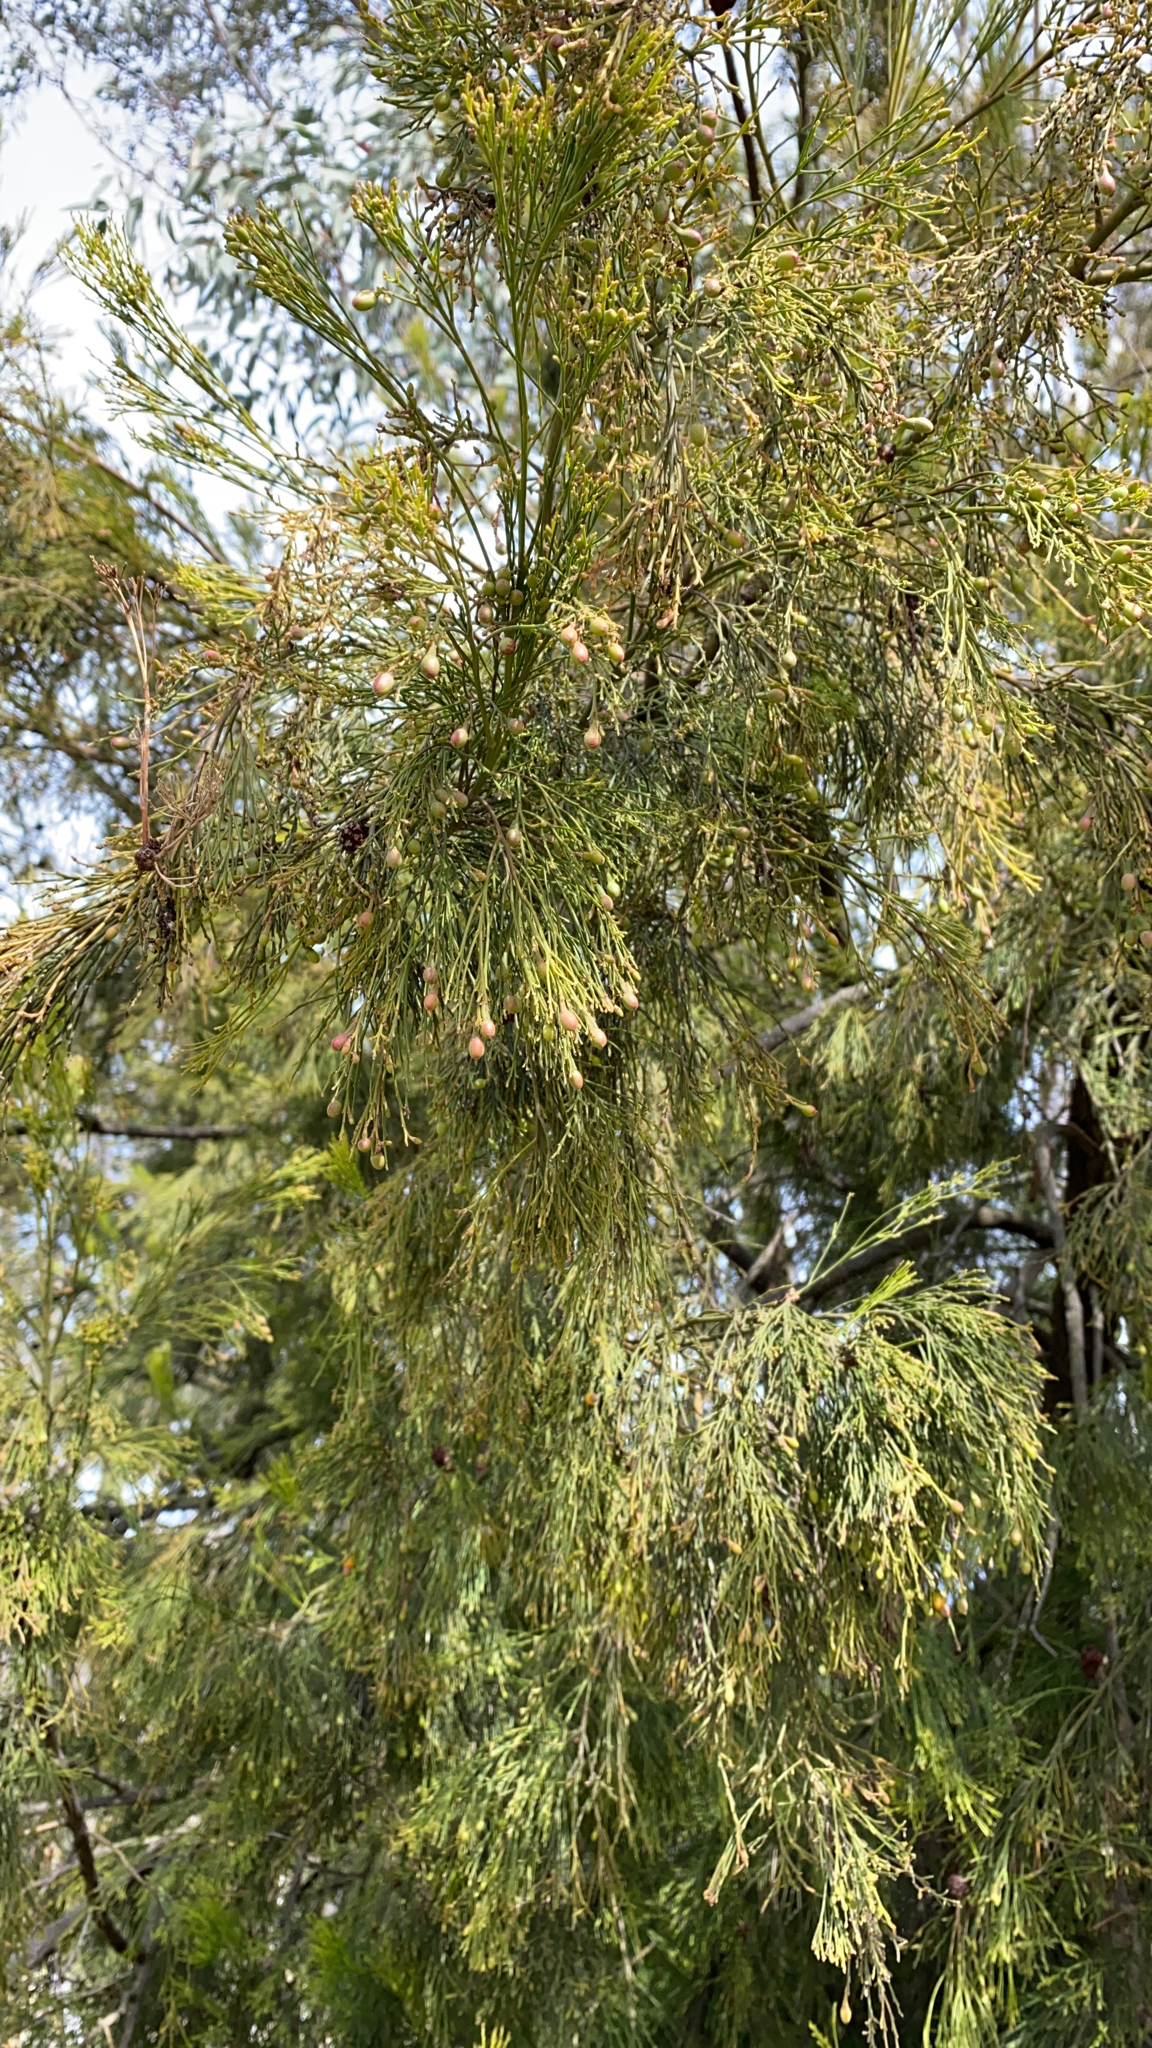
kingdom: Plantae
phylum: Tracheophyta
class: Magnoliopsida
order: Santalales
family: Santalaceae
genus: Exocarpos
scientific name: Exocarpos cupressiformis
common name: Cherry ballart
